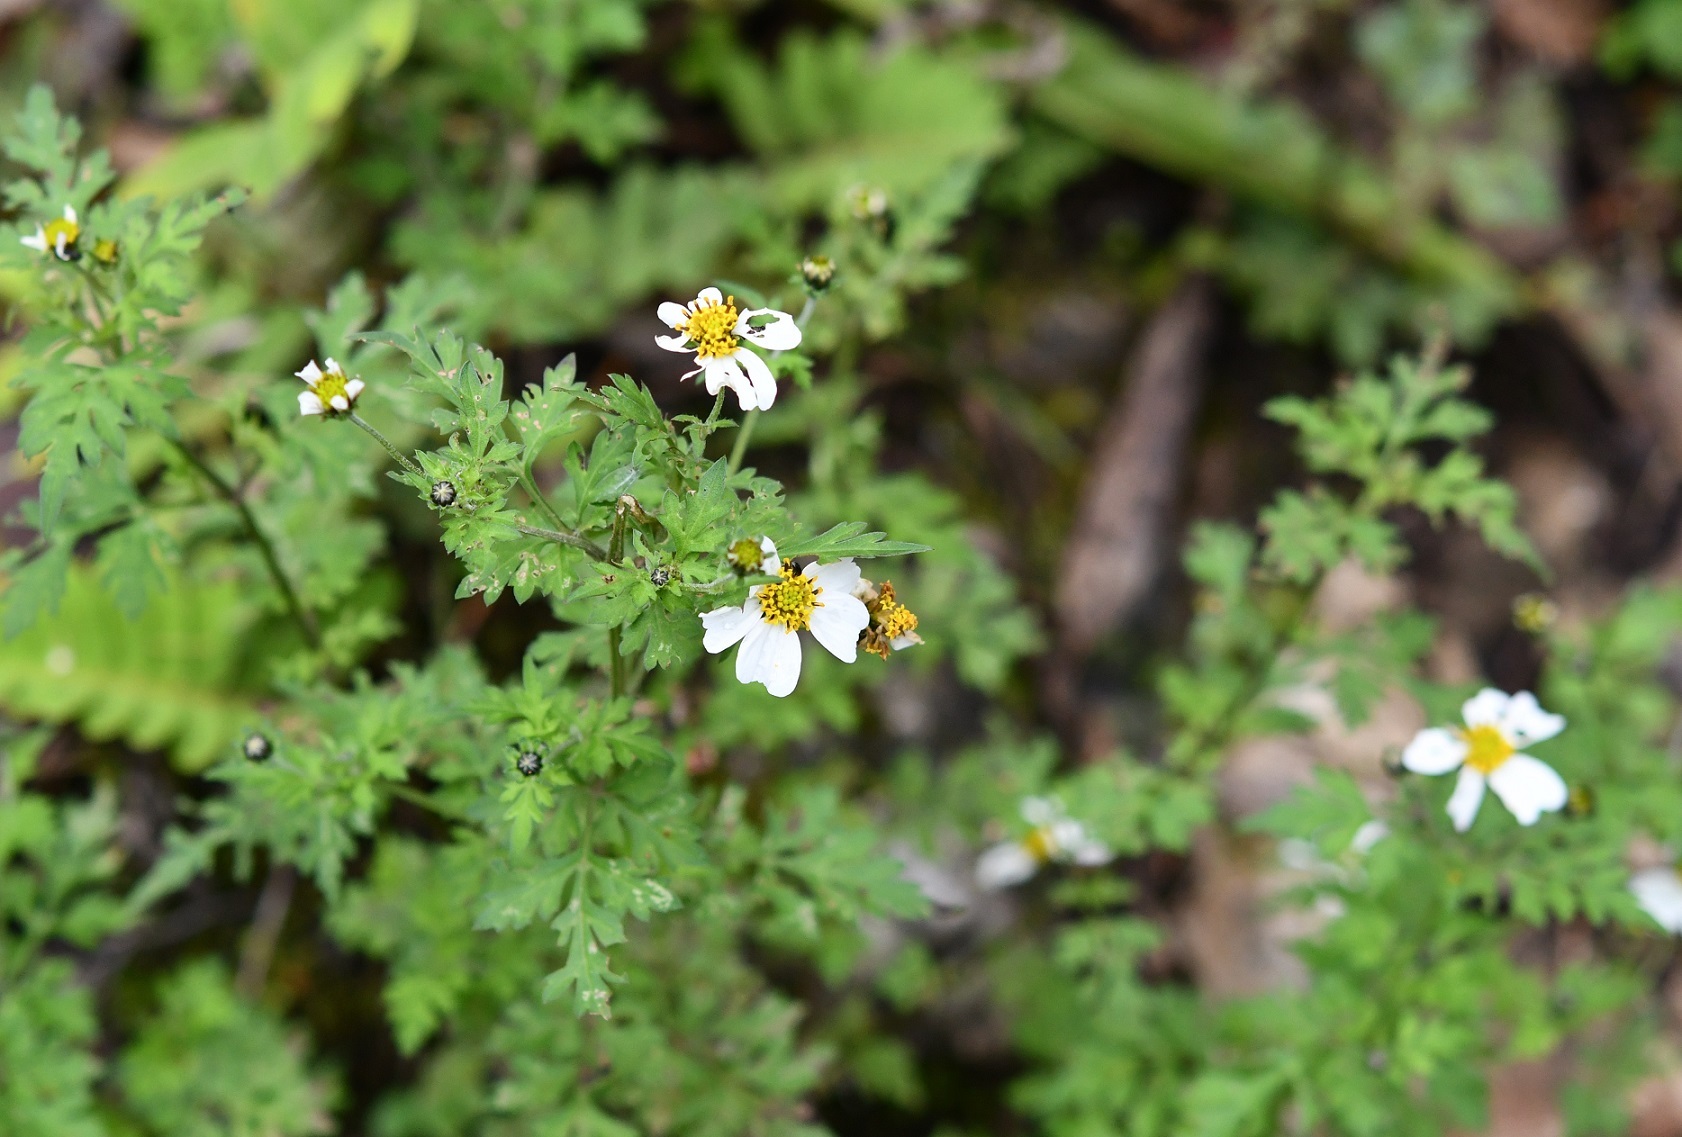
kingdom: Plantae
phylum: Tracheophyta
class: Magnoliopsida
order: Asterales
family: Asteraceae
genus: Bidens
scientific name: Bidens chrysanthemifolia
